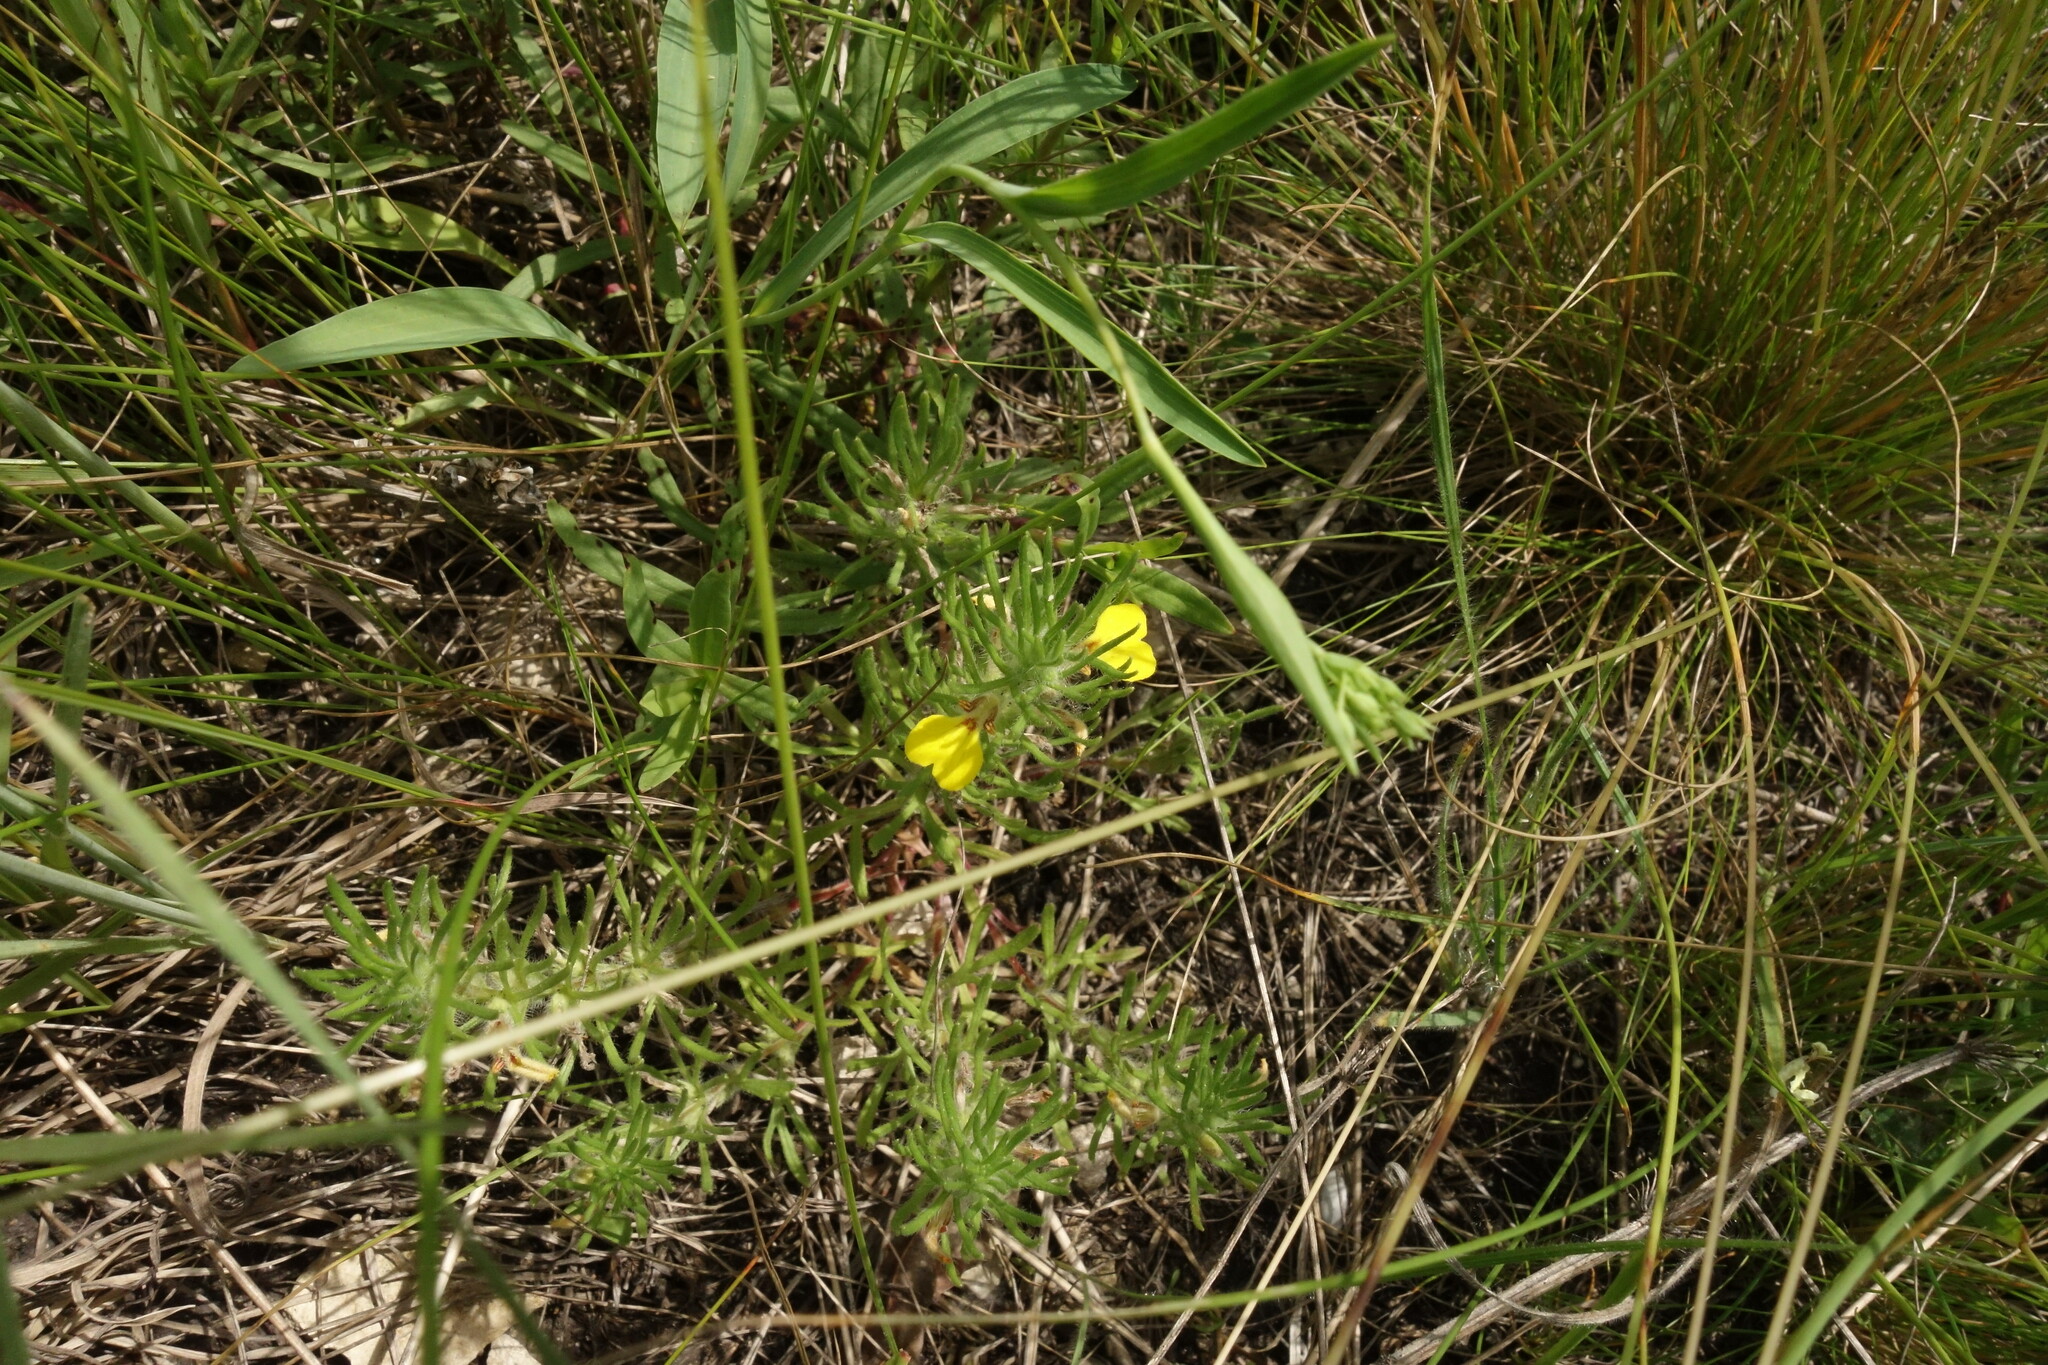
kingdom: Plantae
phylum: Tracheophyta
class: Magnoliopsida
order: Lamiales
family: Lamiaceae
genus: Ajuga
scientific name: Ajuga chamaepitys
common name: Ground-pine
